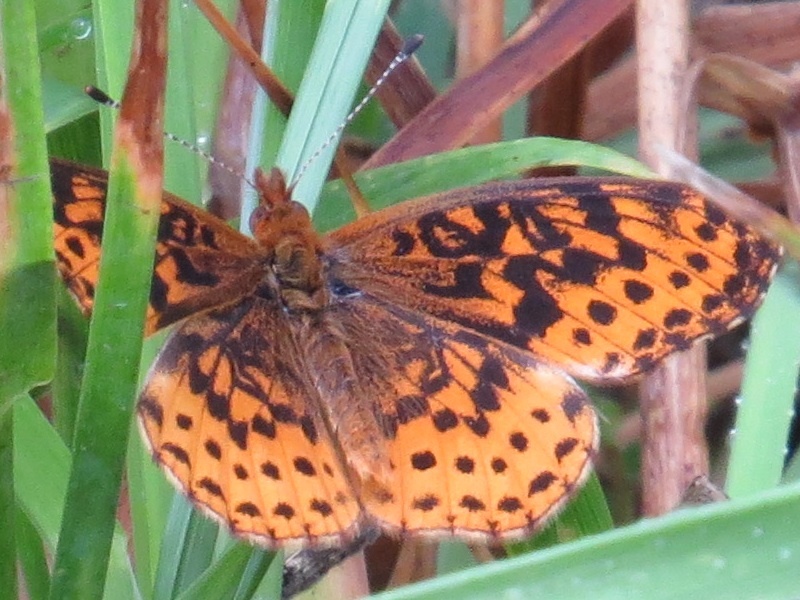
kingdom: Animalia
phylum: Arthropoda
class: Insecta
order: Lepidoptera
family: Nymphalidae
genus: Clossiana
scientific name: Clossiana toddi
